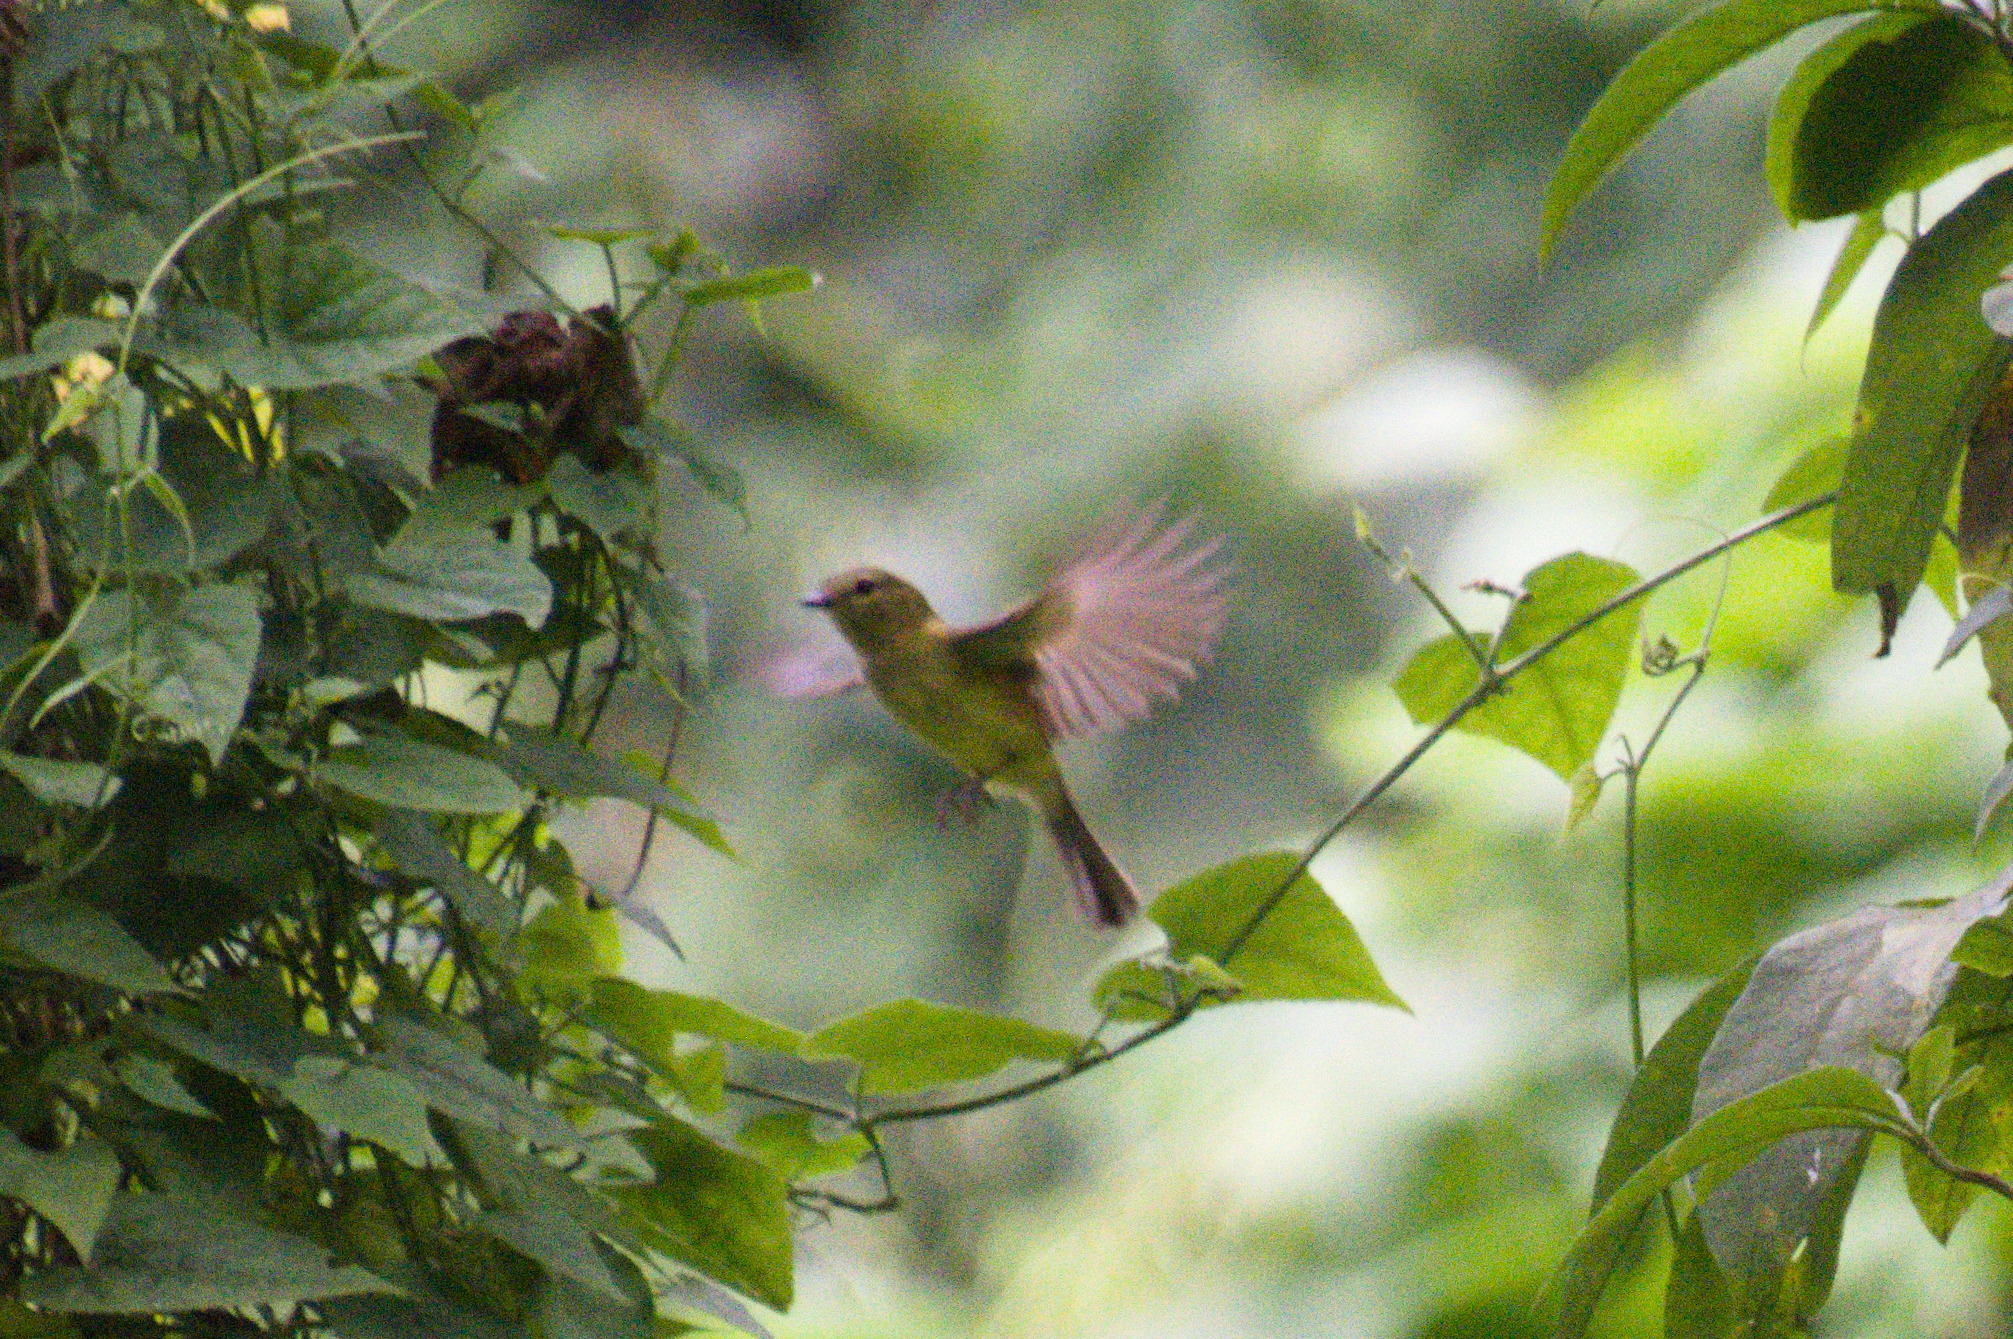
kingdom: Animalia
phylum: Chordata
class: Aves
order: Passeriformes
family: Tyrannidae
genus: Myiophobus
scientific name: Myiophobus flavicans
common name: Flavescent flycatcher
